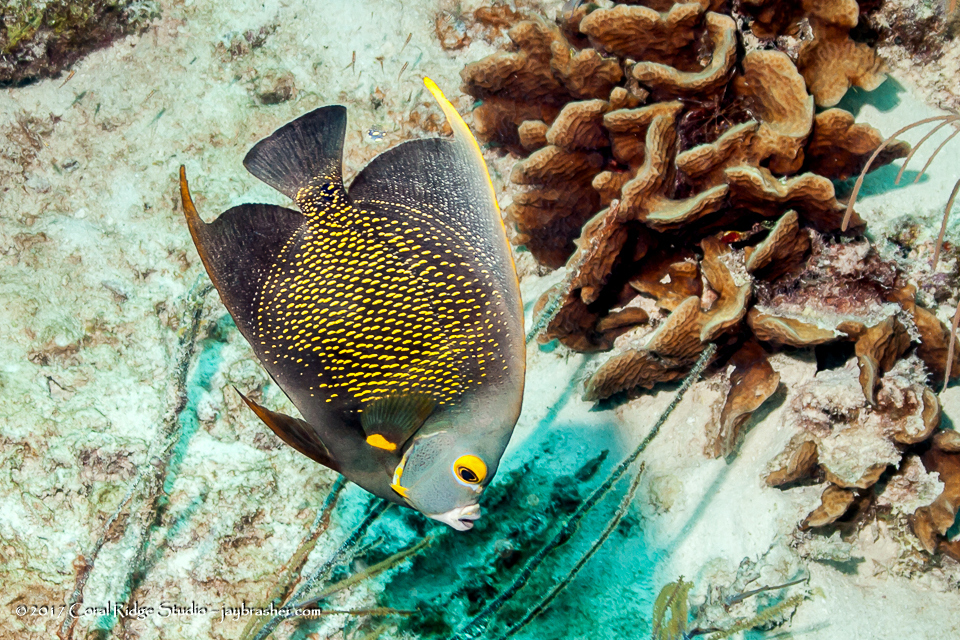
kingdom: Animalia
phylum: Chordata
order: Perciformes
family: Pomacanthidae
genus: Pomacanthus
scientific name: Pomacanthus paru
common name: French angelfish
